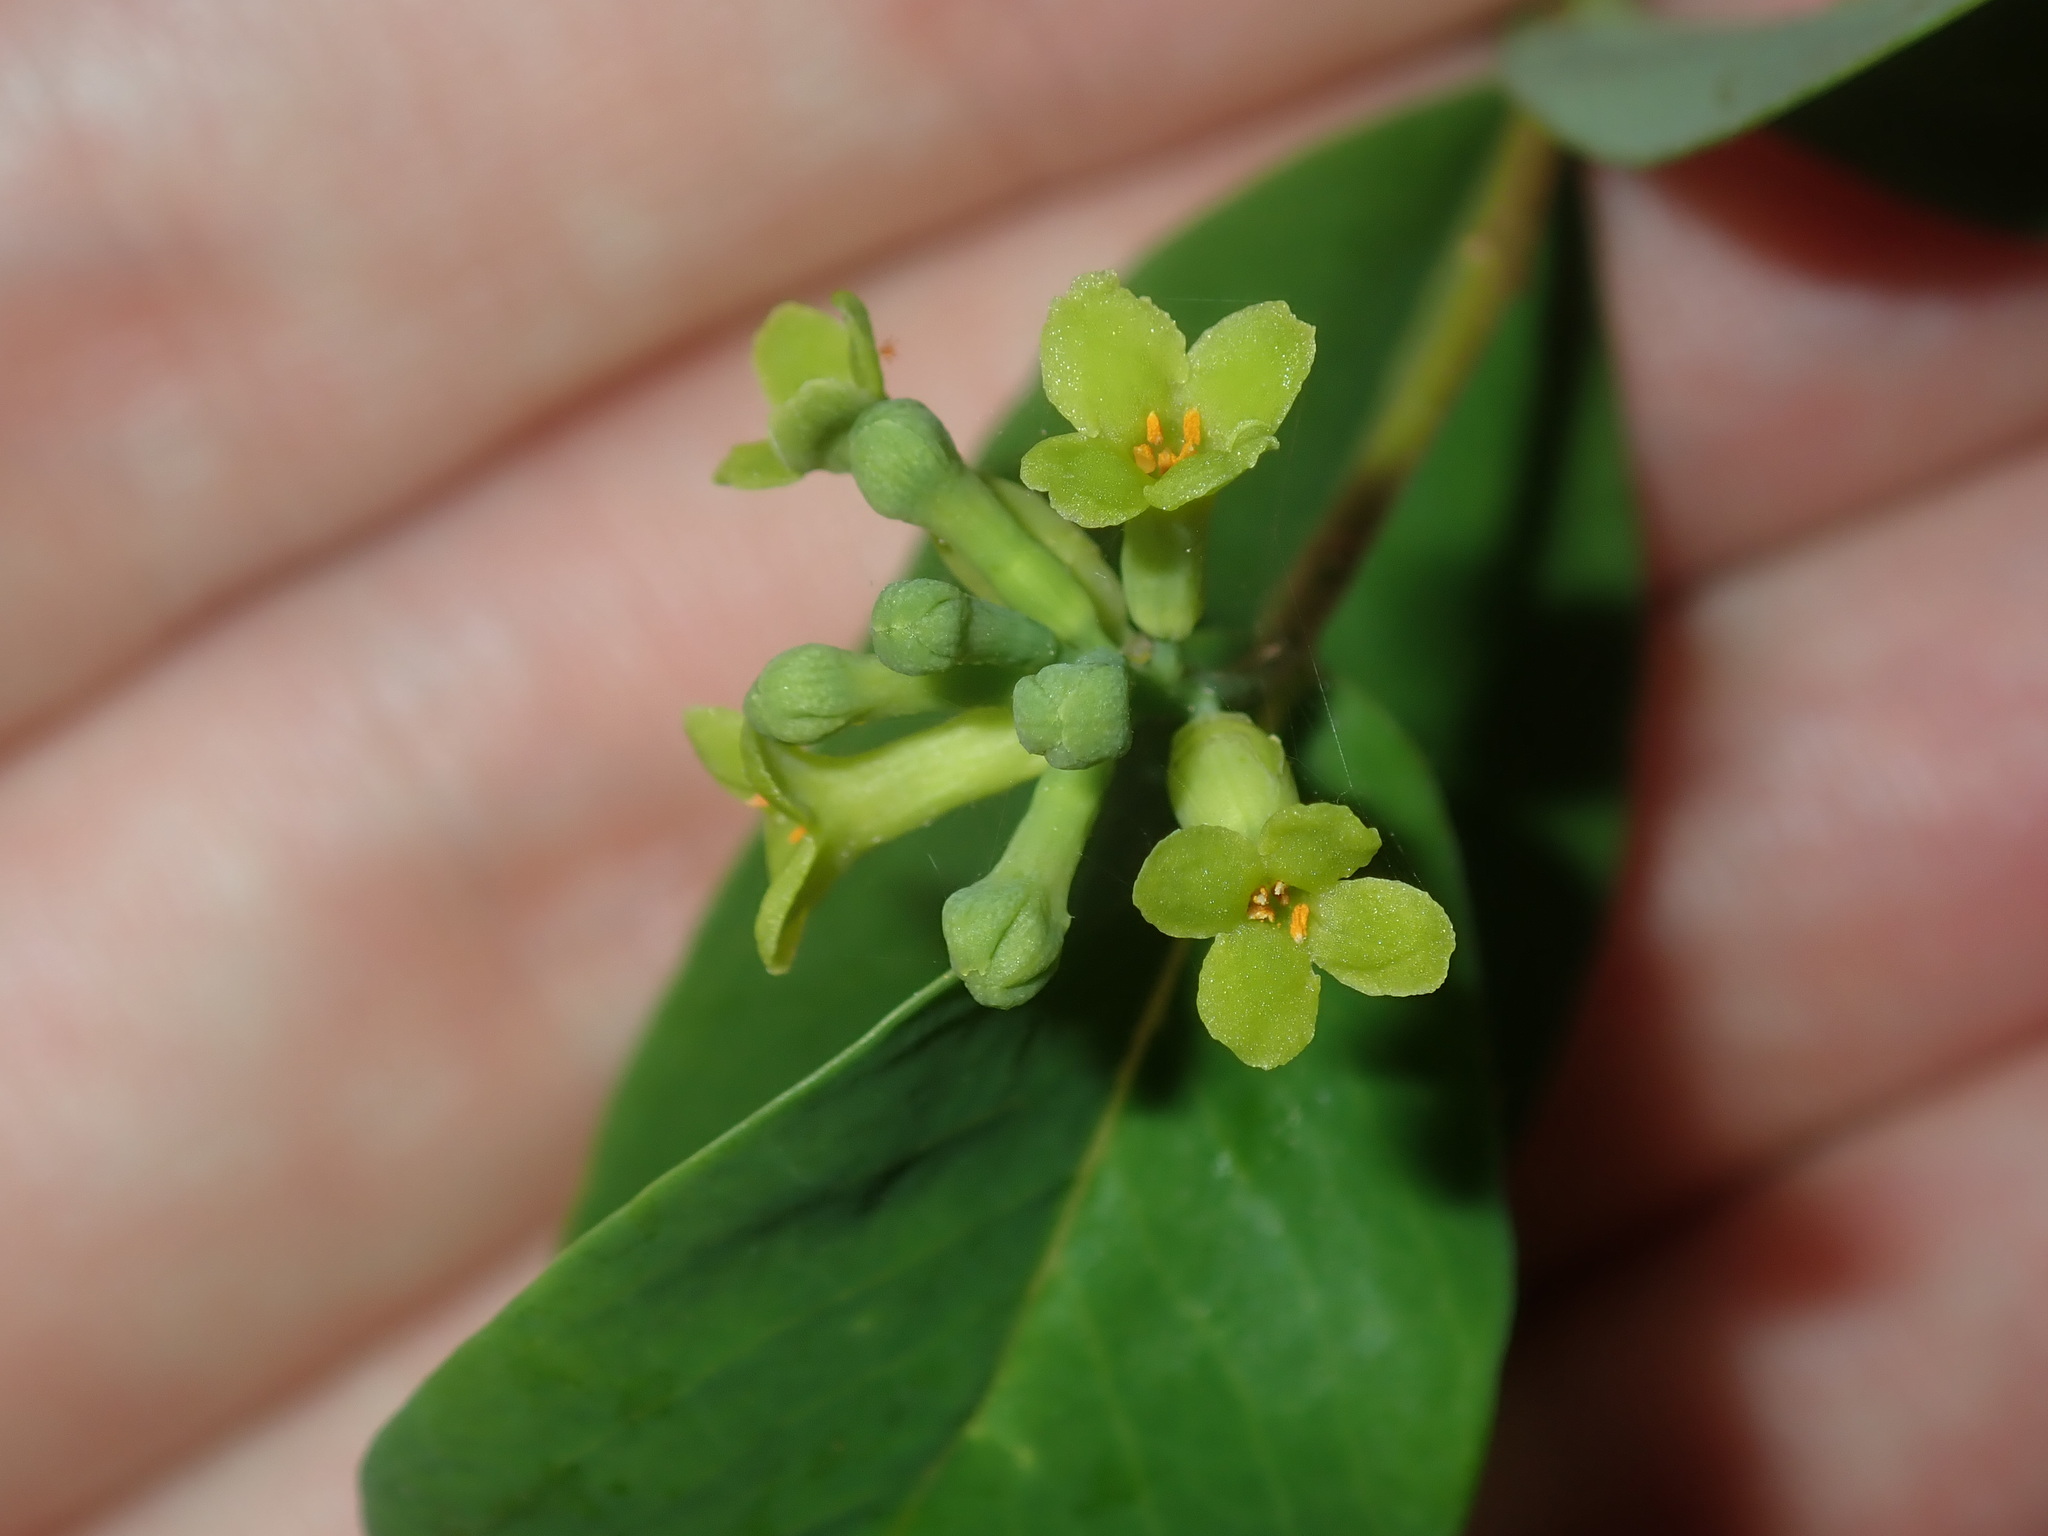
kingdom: Plantae
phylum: Tracheophyta
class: Magnoliopsida
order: Malvales
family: Thymelaeaceae
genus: Wikstroemia
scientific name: Wikstroemia indica
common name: Tiebush
